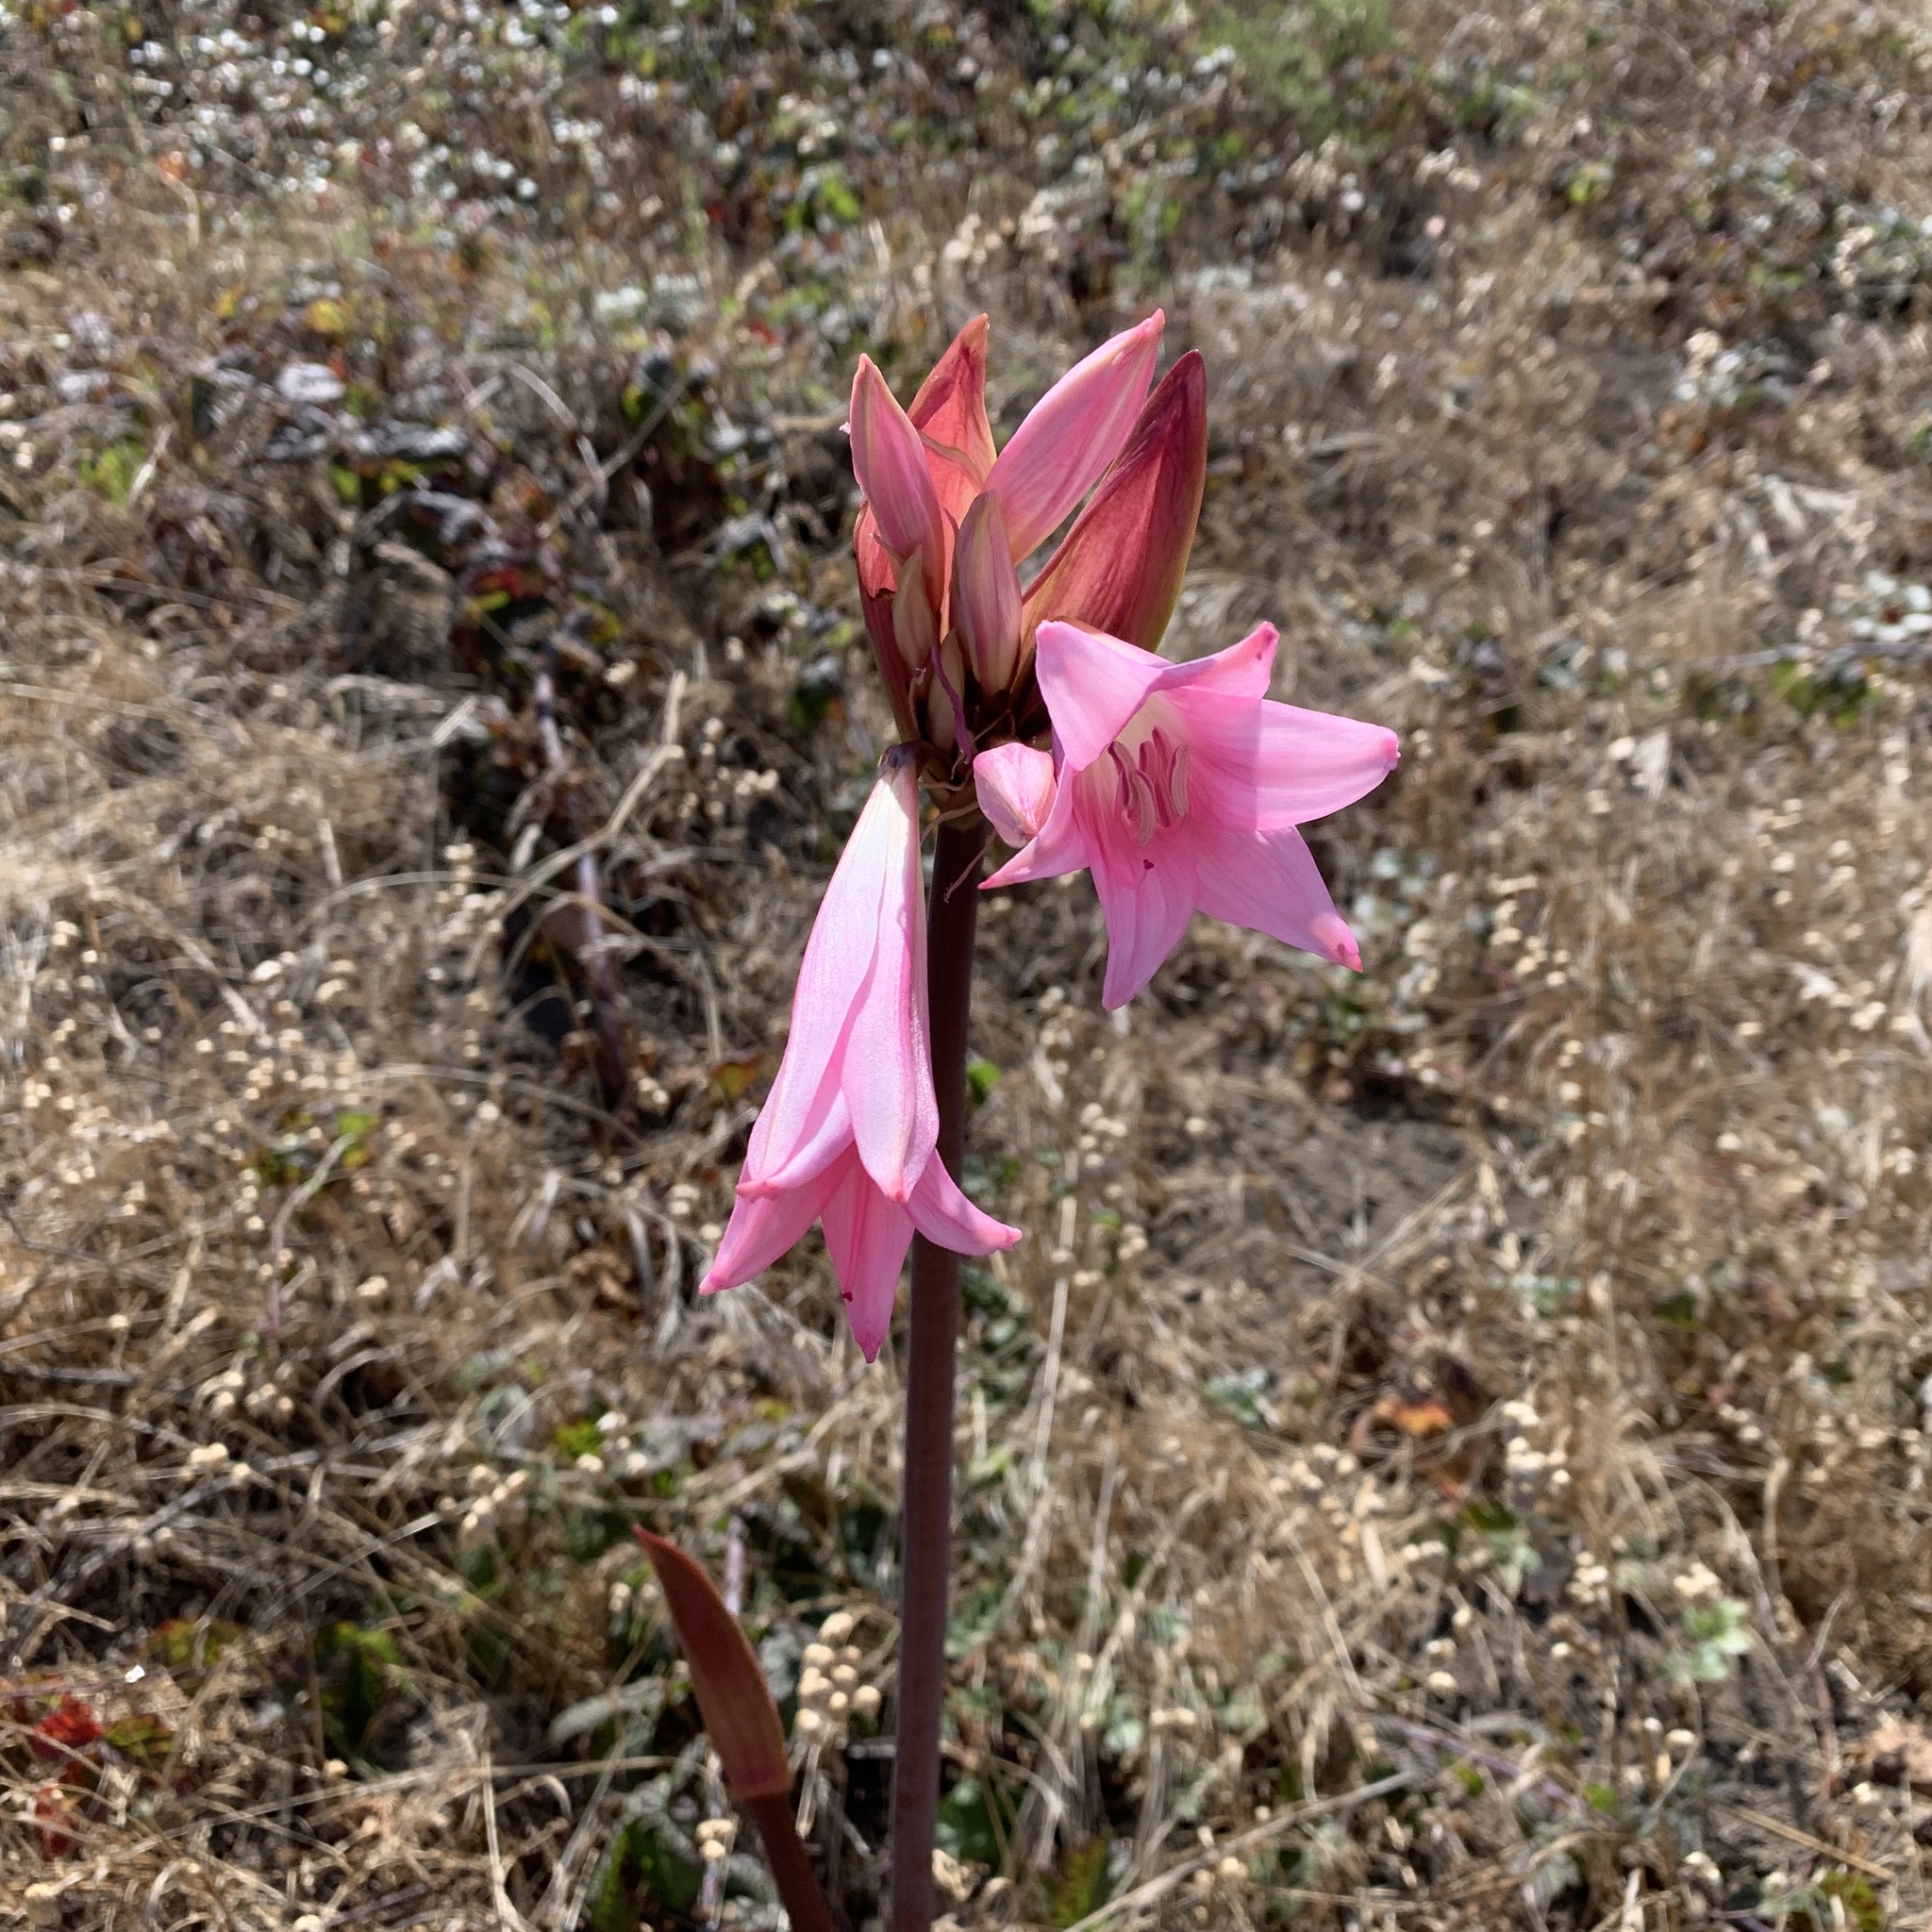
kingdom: Plantae
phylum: Tracheophyta
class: Liliopsida
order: Asparagales
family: Amaryllidaceae
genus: Amaryllis
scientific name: Amaryllis belladonna
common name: Jersey lily
